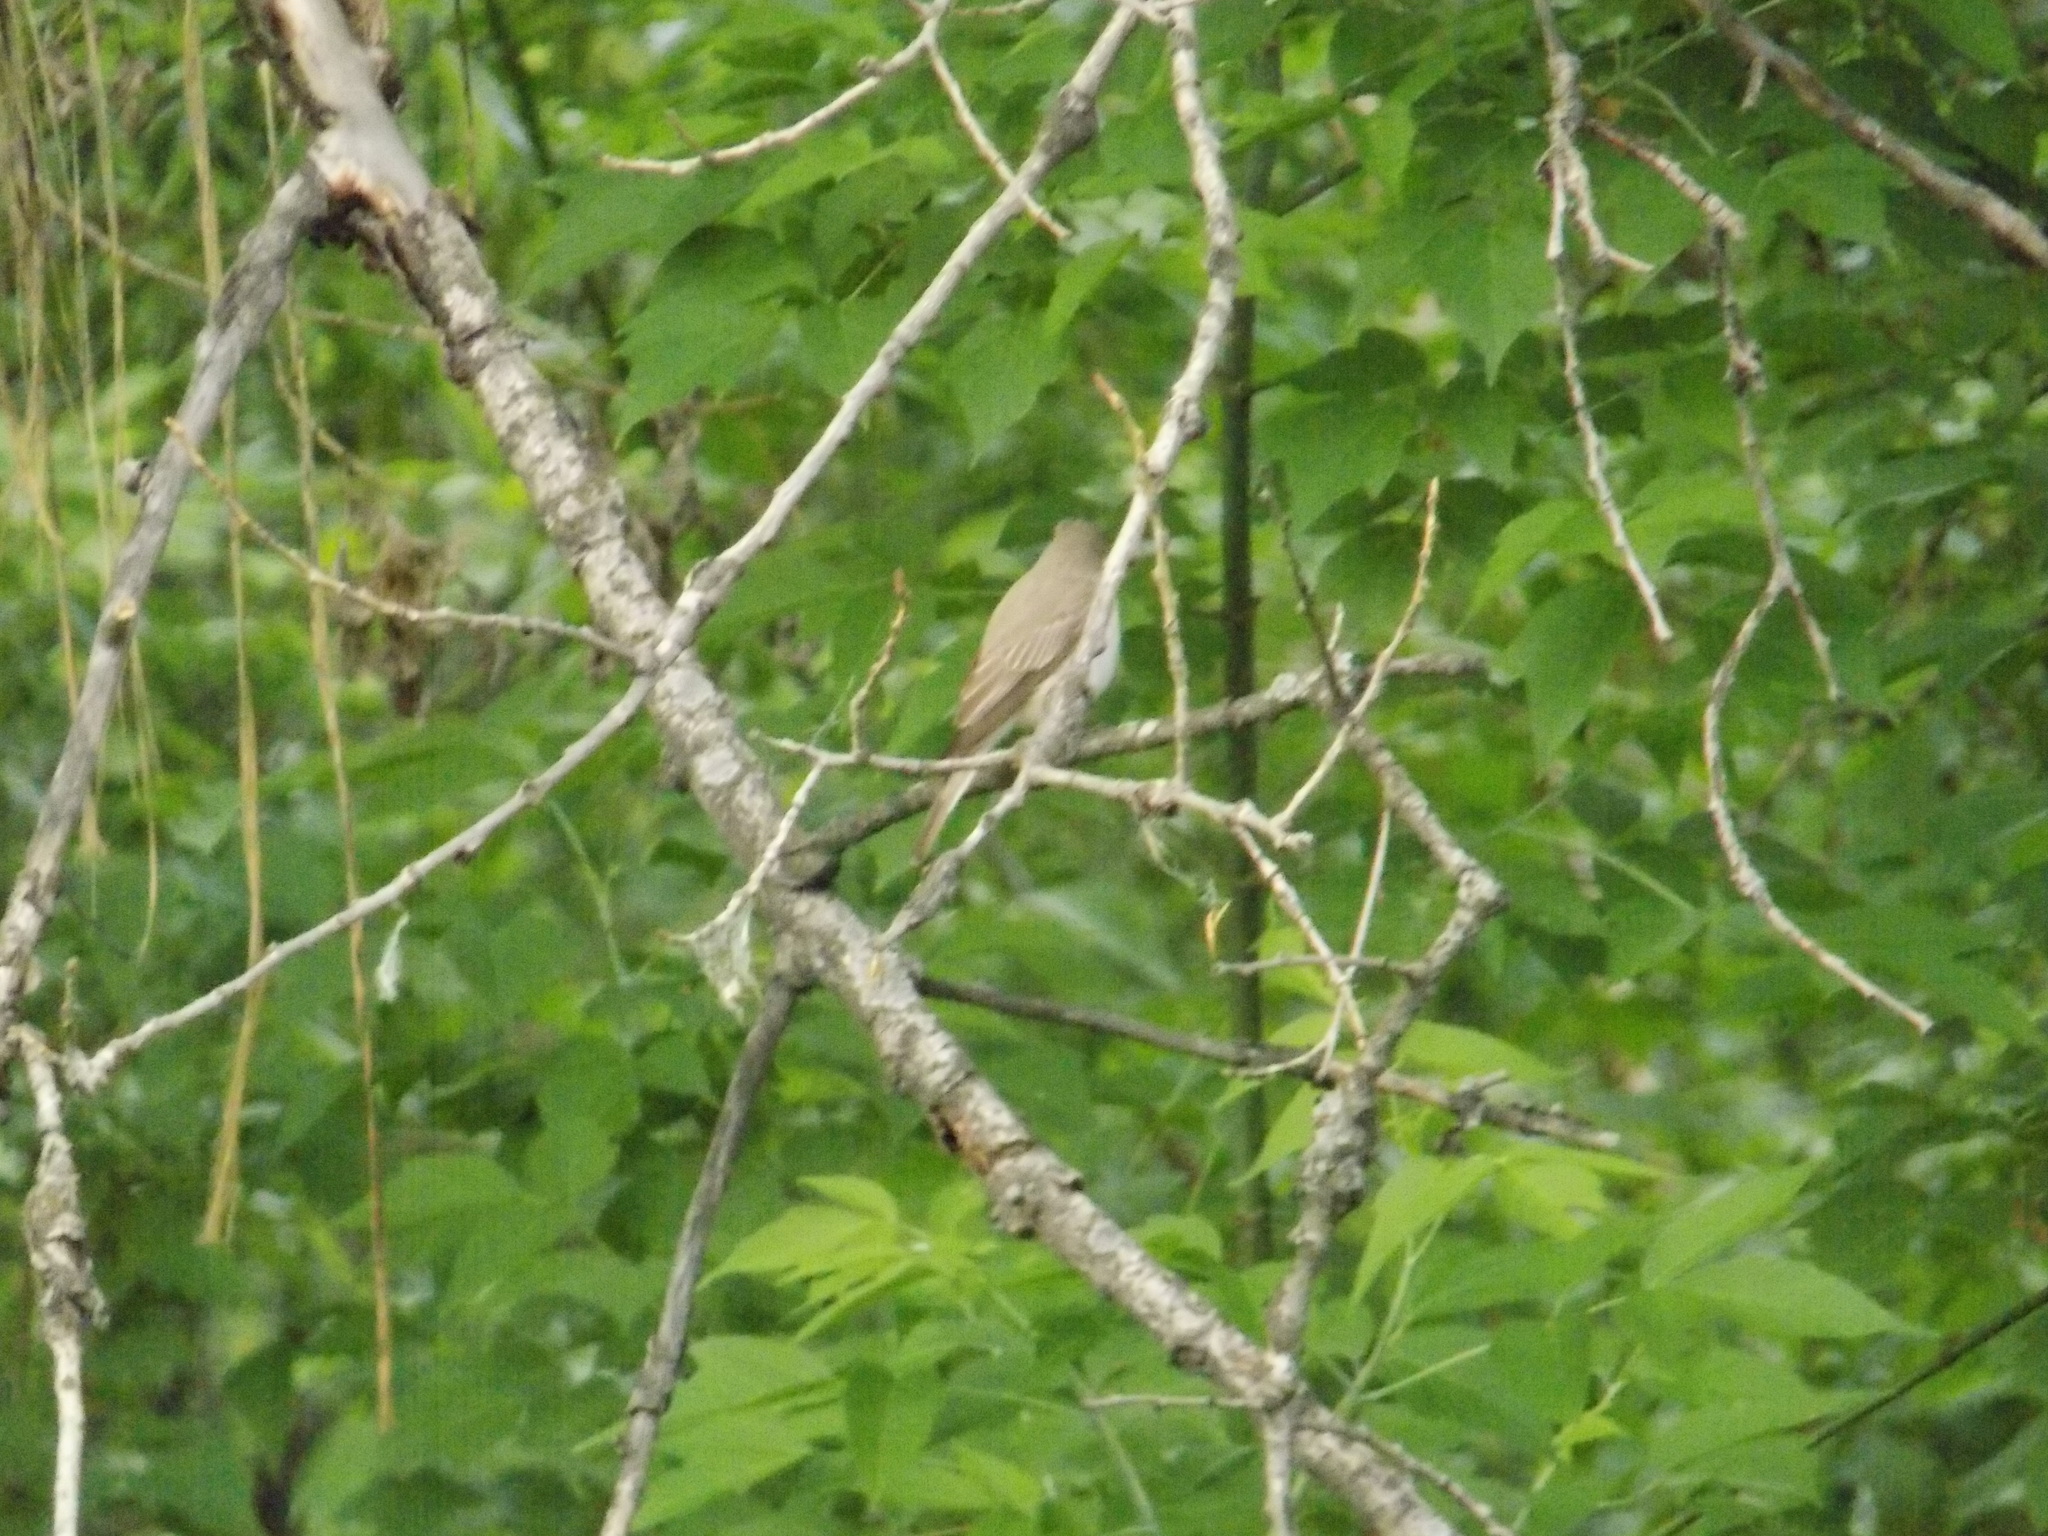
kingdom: Animalia
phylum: Chordata
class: Aves
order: Passeriformes
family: Muscicapidae
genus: Muscicapa
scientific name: Muscicapa striata
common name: Spotted flycatcher
